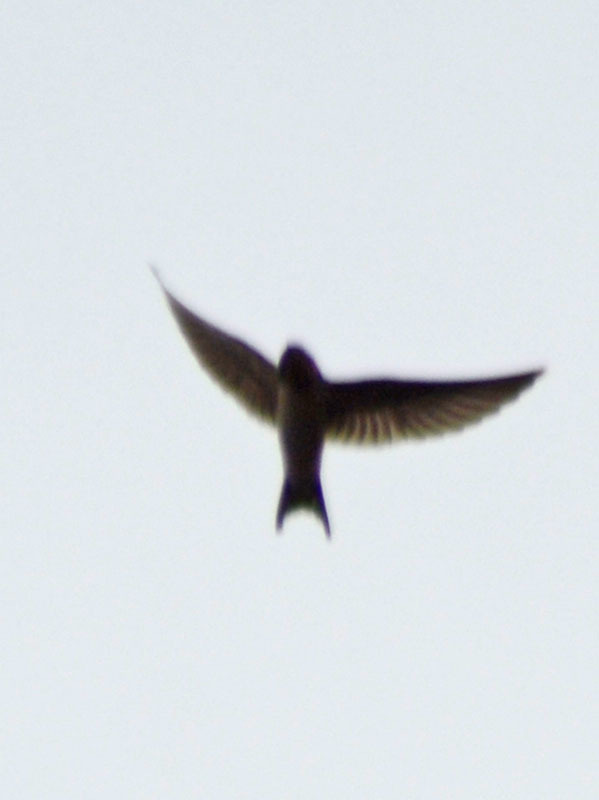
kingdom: Animalia
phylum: Chordata
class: Aves
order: Passeriformes
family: Hirundinidae
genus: Hirundo
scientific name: Hirundo rustica
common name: Barn swallow
